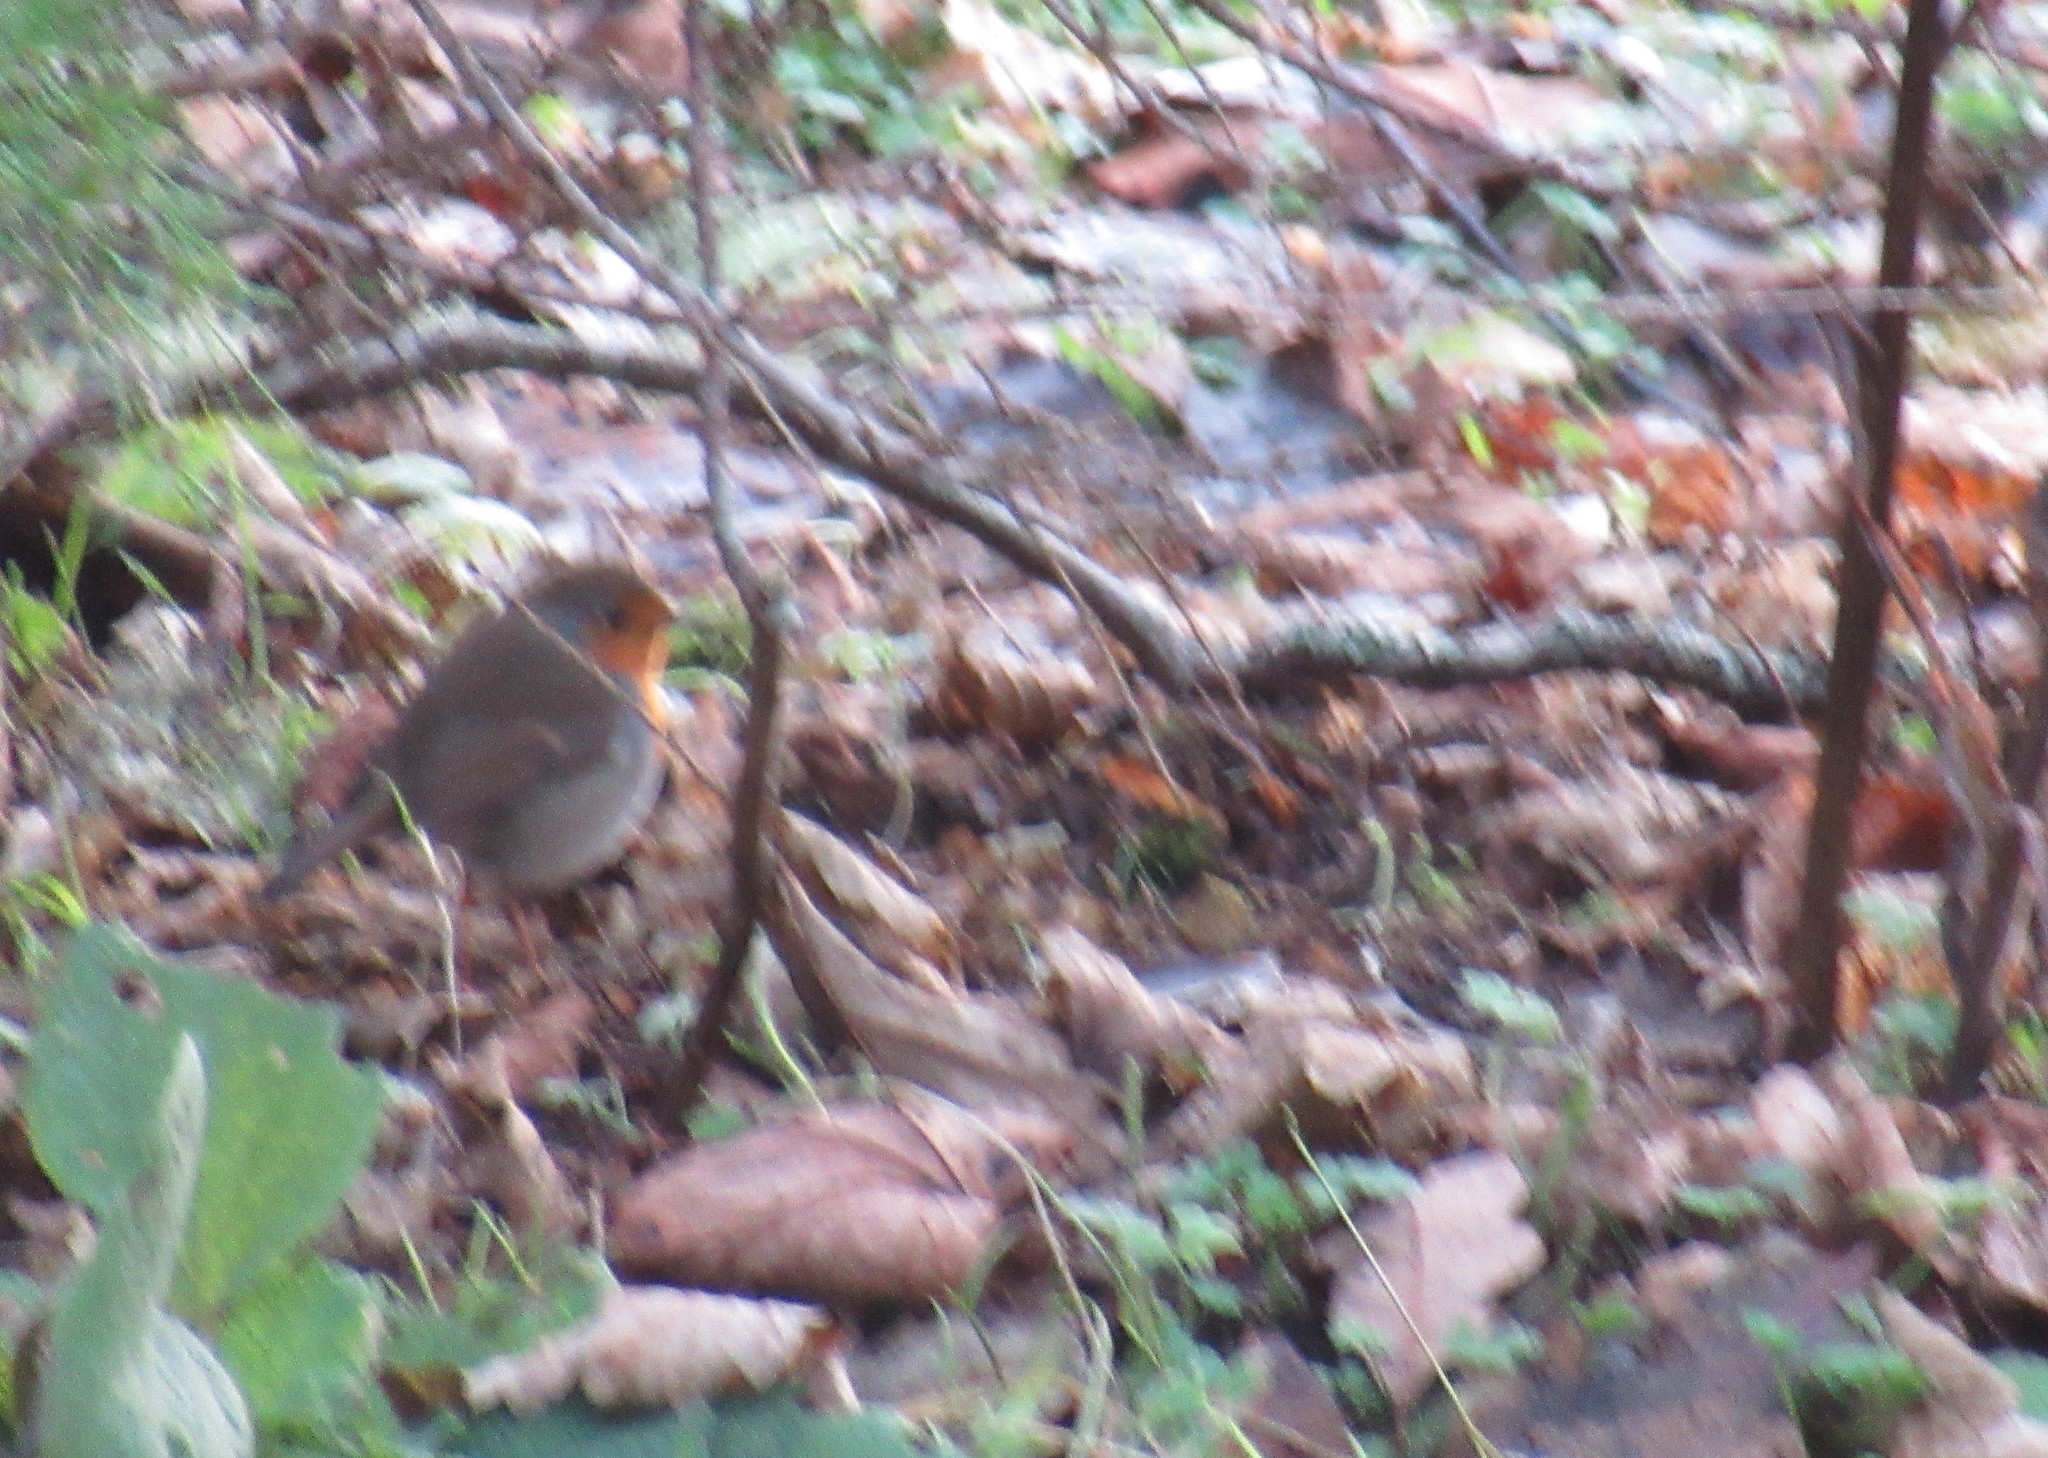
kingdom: Animalia
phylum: Chordata
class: Aves
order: Passeriformes
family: Muscicapidae
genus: Erithacus
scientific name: Erithacus rubecula
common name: European robin
